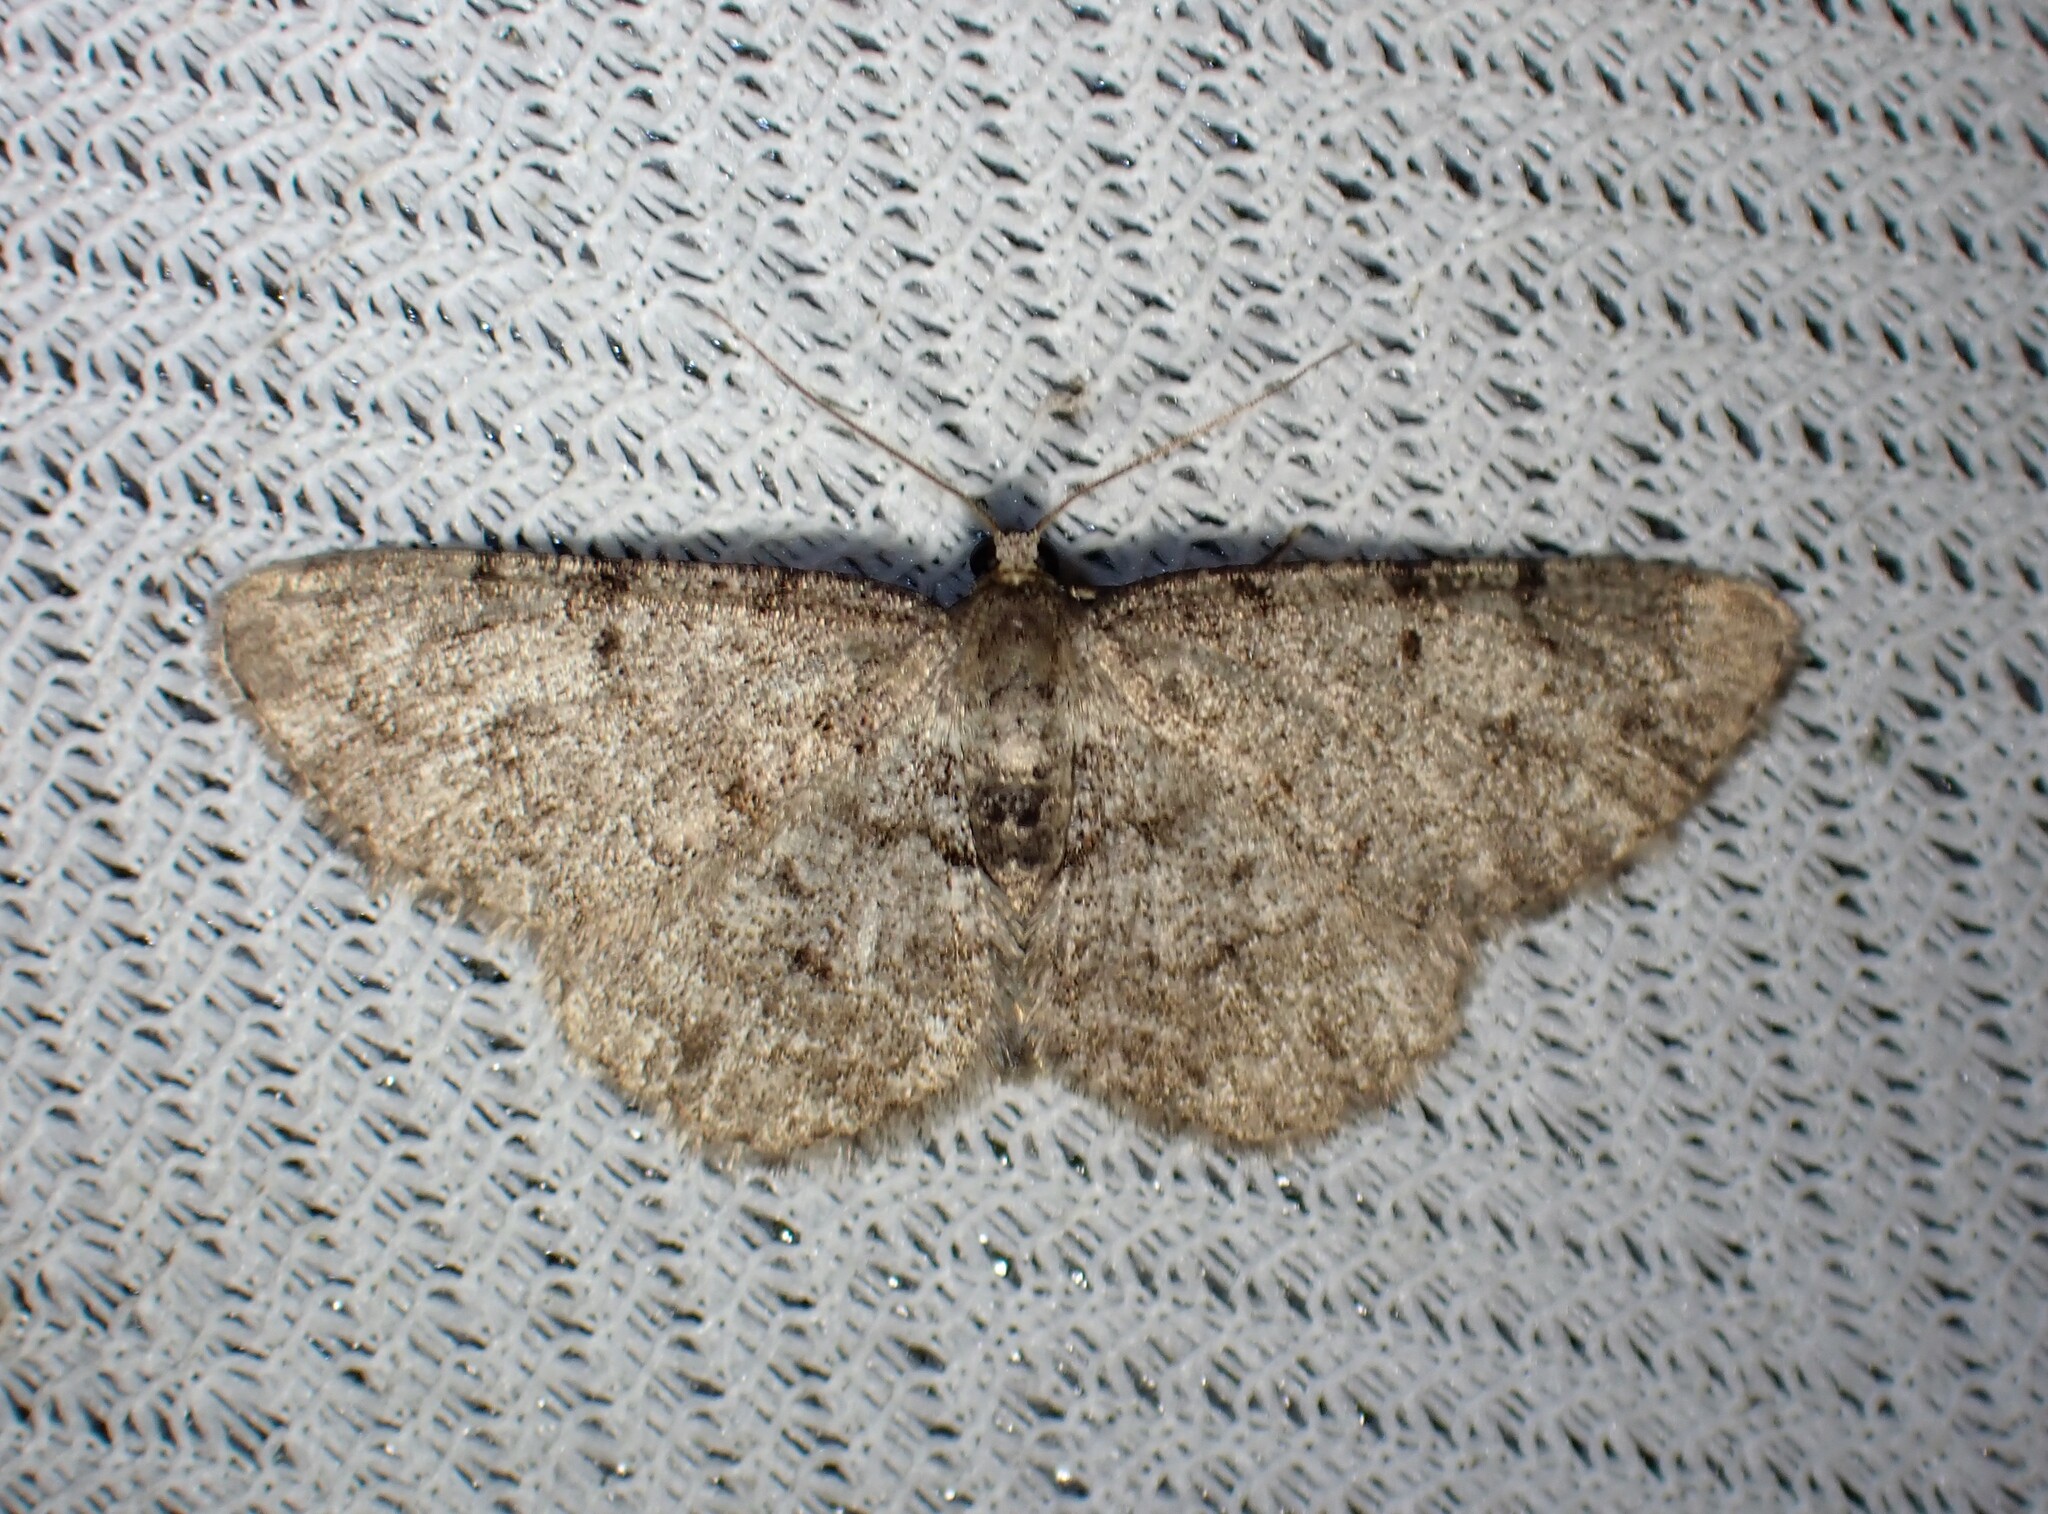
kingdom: Animalia
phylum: Arthropoda
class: Insecta
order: Lepidoptera
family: Geometridae
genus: Aethalura
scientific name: Aethalura intertexta
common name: Four-barred gray
